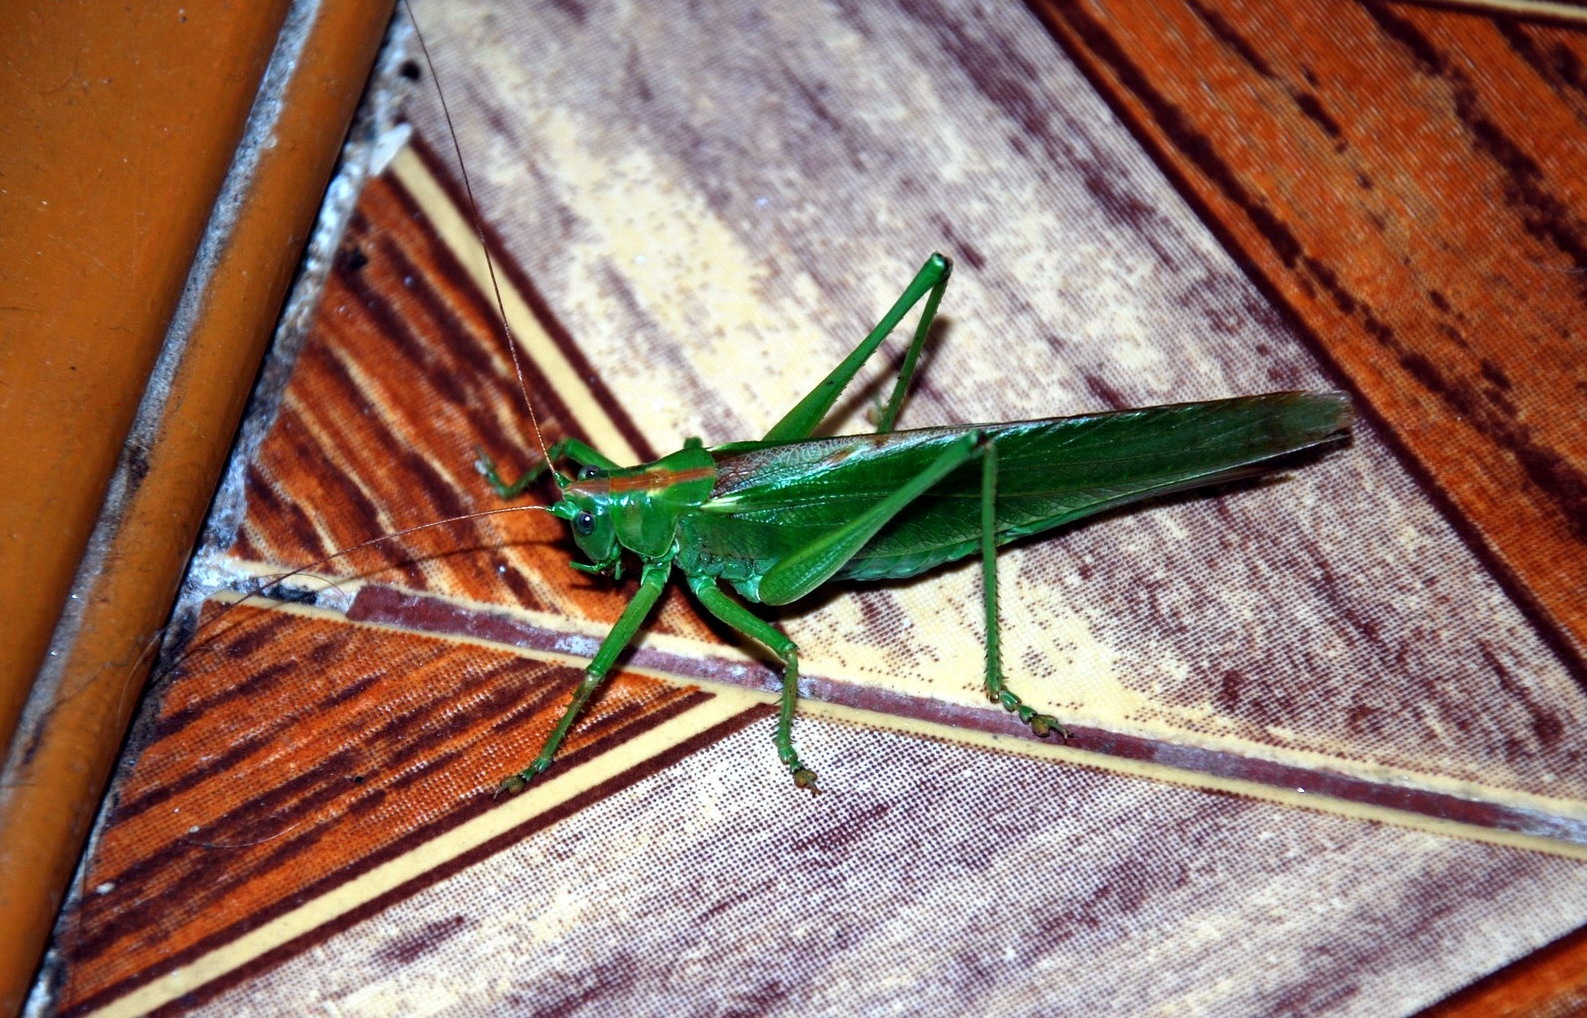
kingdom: Animalia
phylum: Arthropoda
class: Insecta
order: Orthoptera
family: Tettigoniidae
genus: Tettigonia
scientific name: Tettigonia viridissima
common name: Great green bush-cricket
